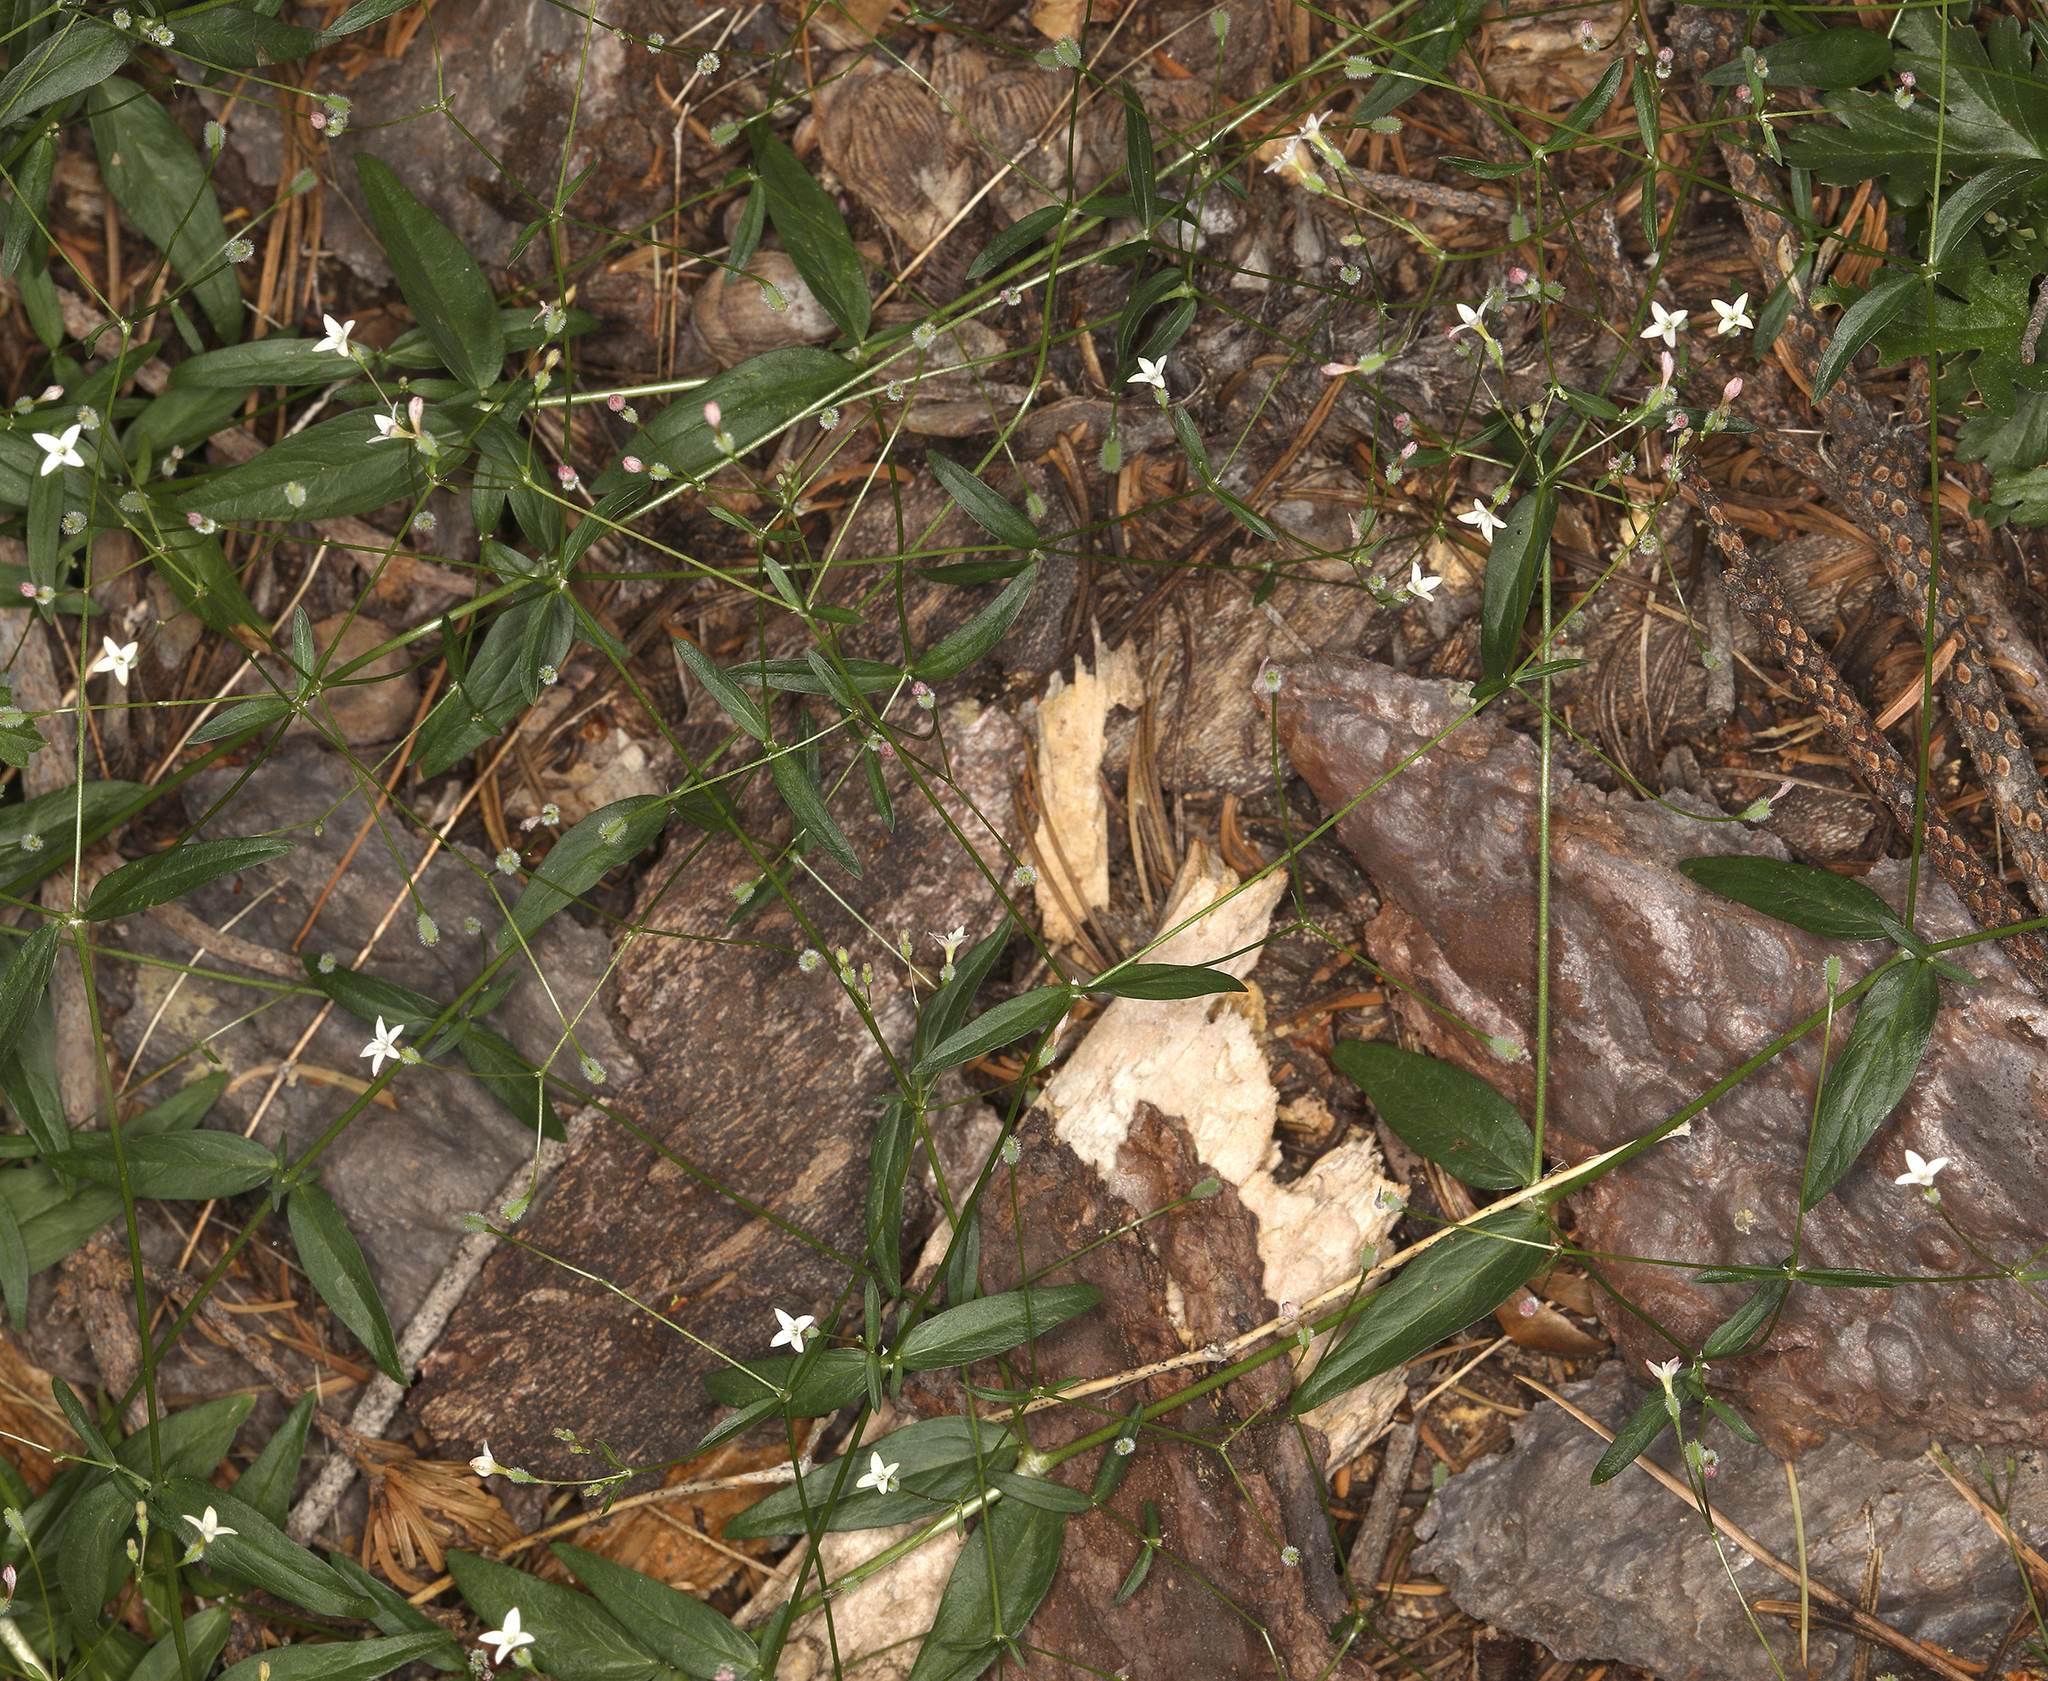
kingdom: Plantae
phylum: Tracheophyta
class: Magnoliopsida
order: Gentianales
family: Rubiaceae
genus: Kelloggia
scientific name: Kelloggia galioides
